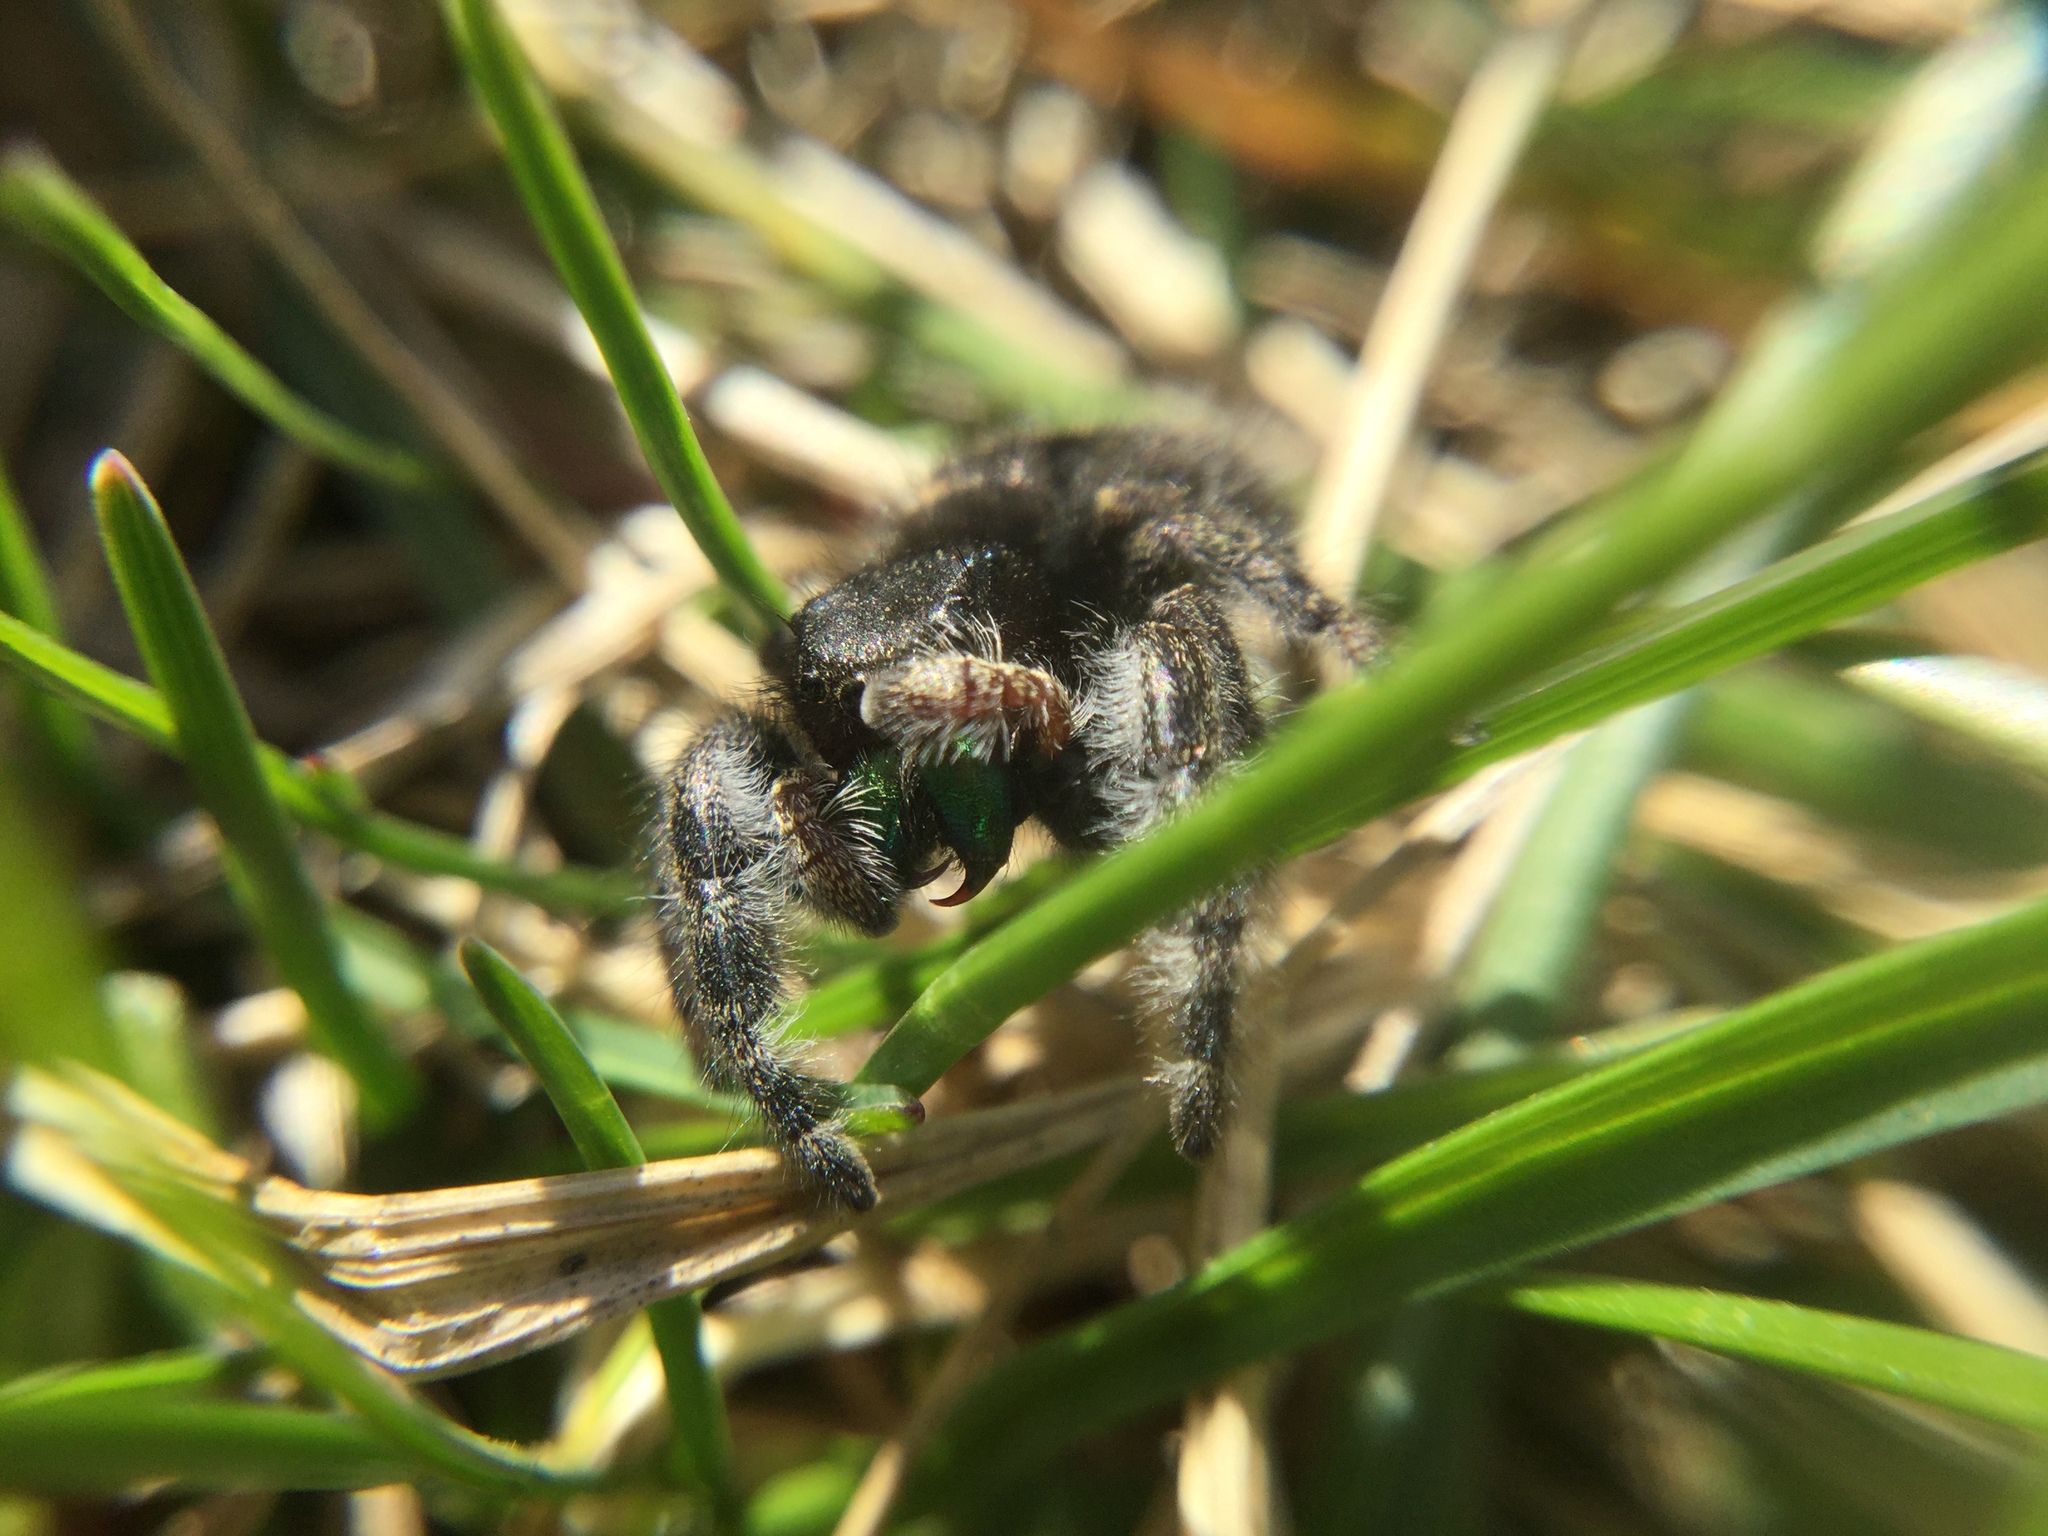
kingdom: Animalia
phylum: Arthropoda
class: Arachnida
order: Araneae
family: Salticidae
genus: Phidippus
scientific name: Phidippus audax
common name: Bold jumper
